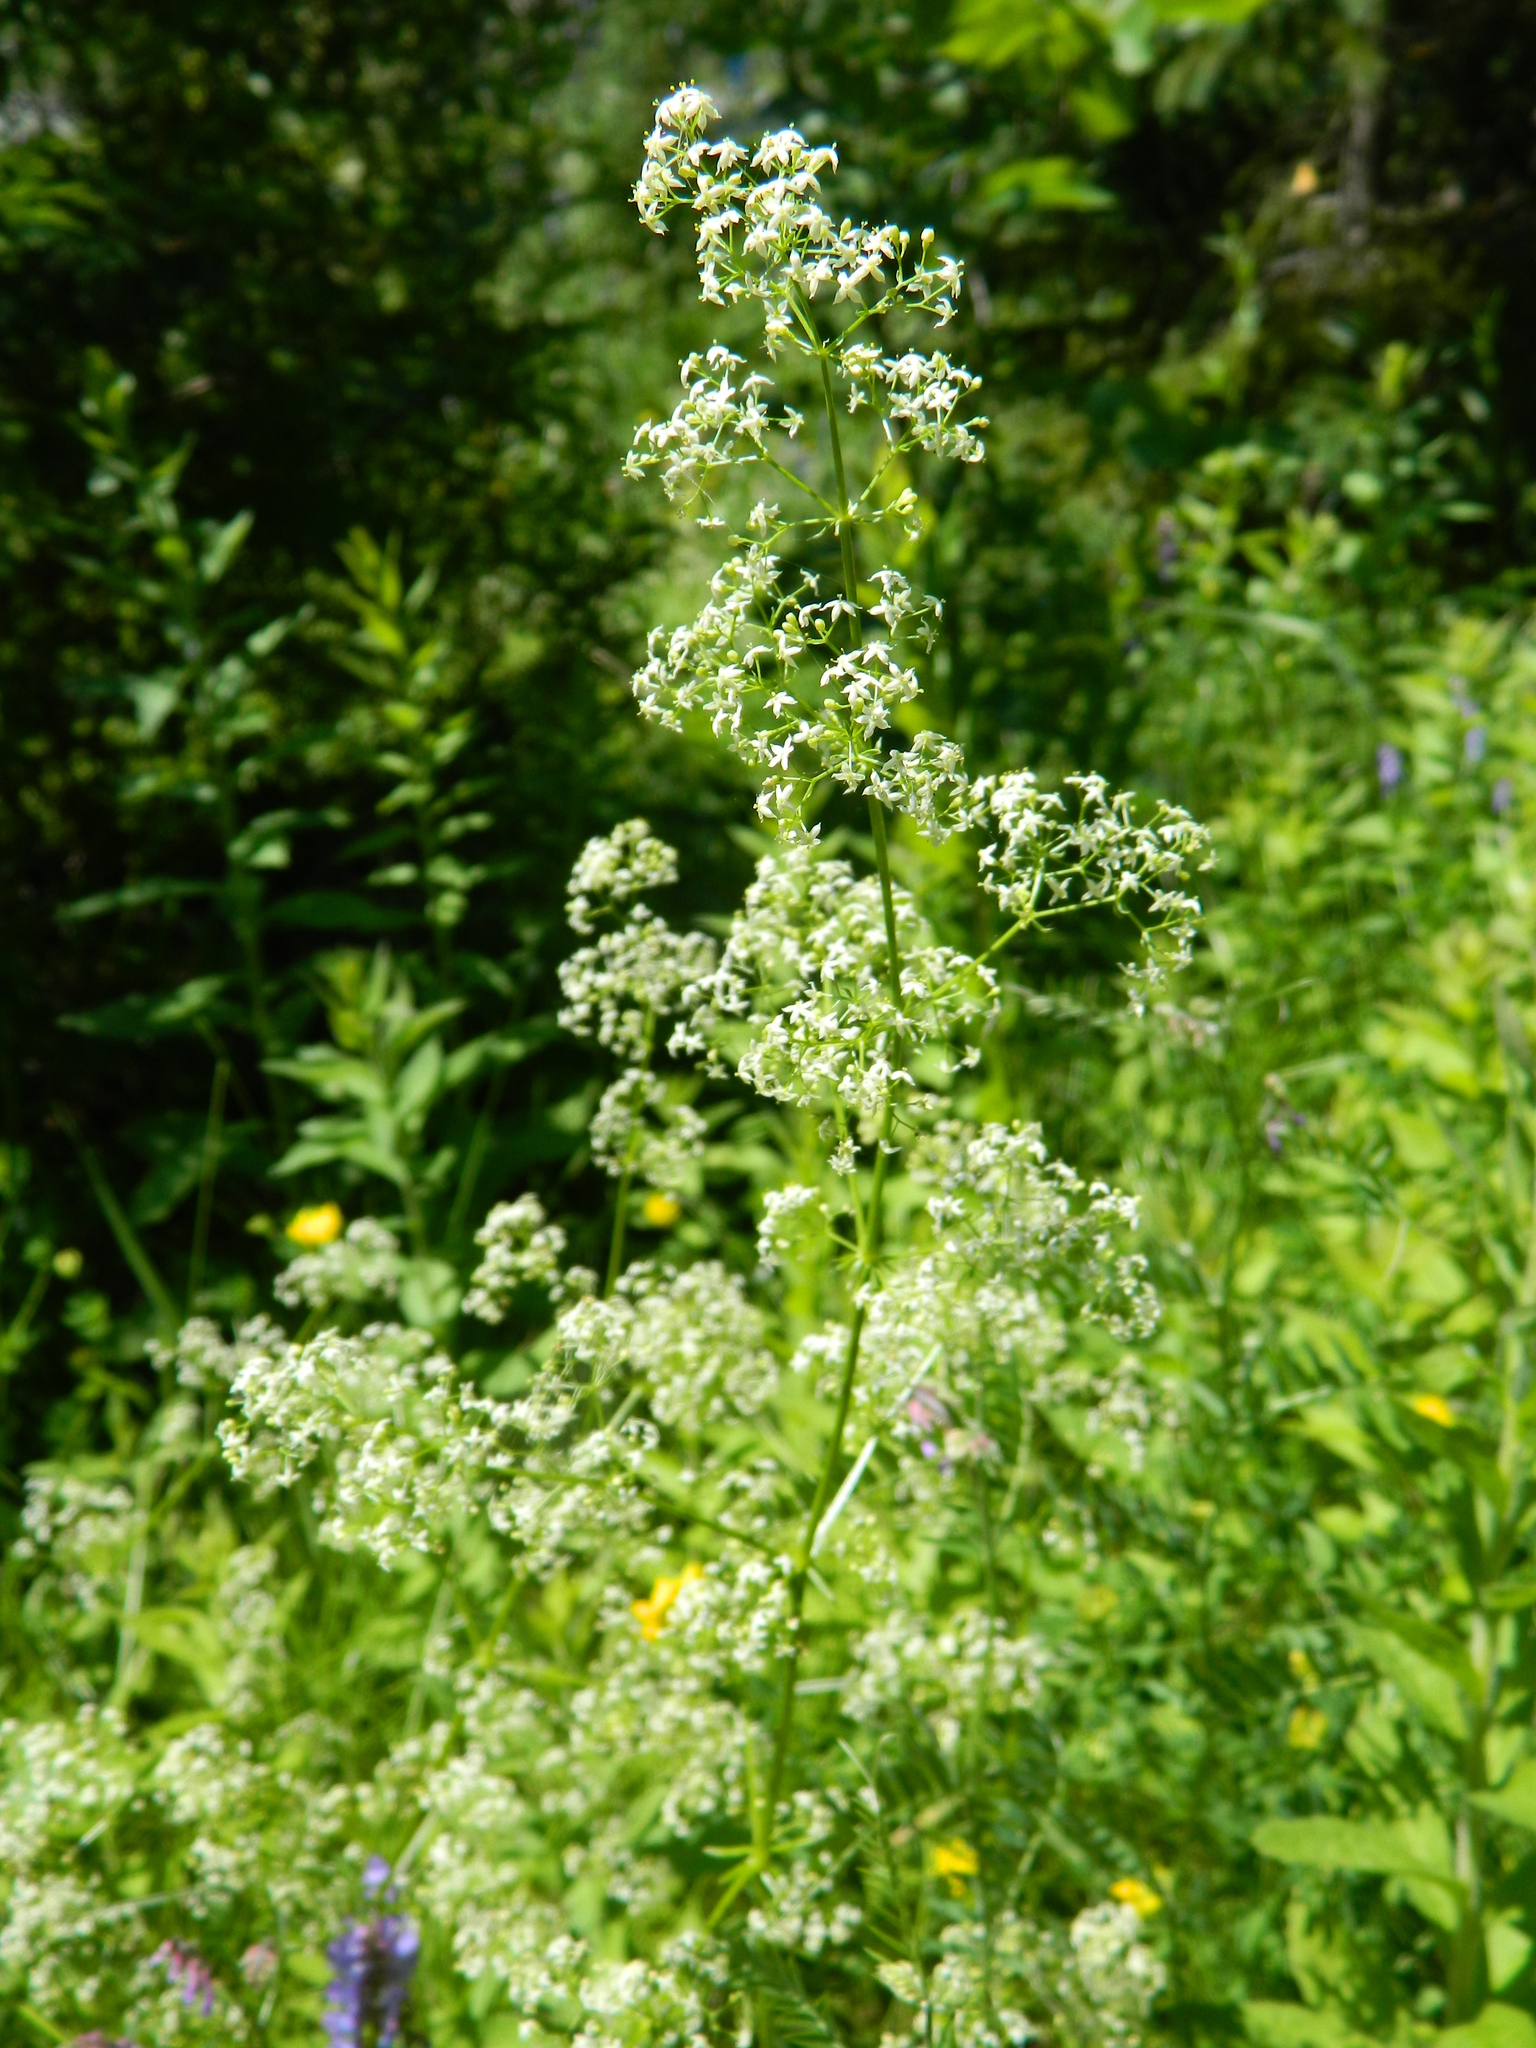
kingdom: Plantae
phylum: Tracheophyta
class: Magnoliopsida
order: Gentianales
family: Rubiaceae
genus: Galium
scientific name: Galium mollugo
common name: Hedge bedstraw
